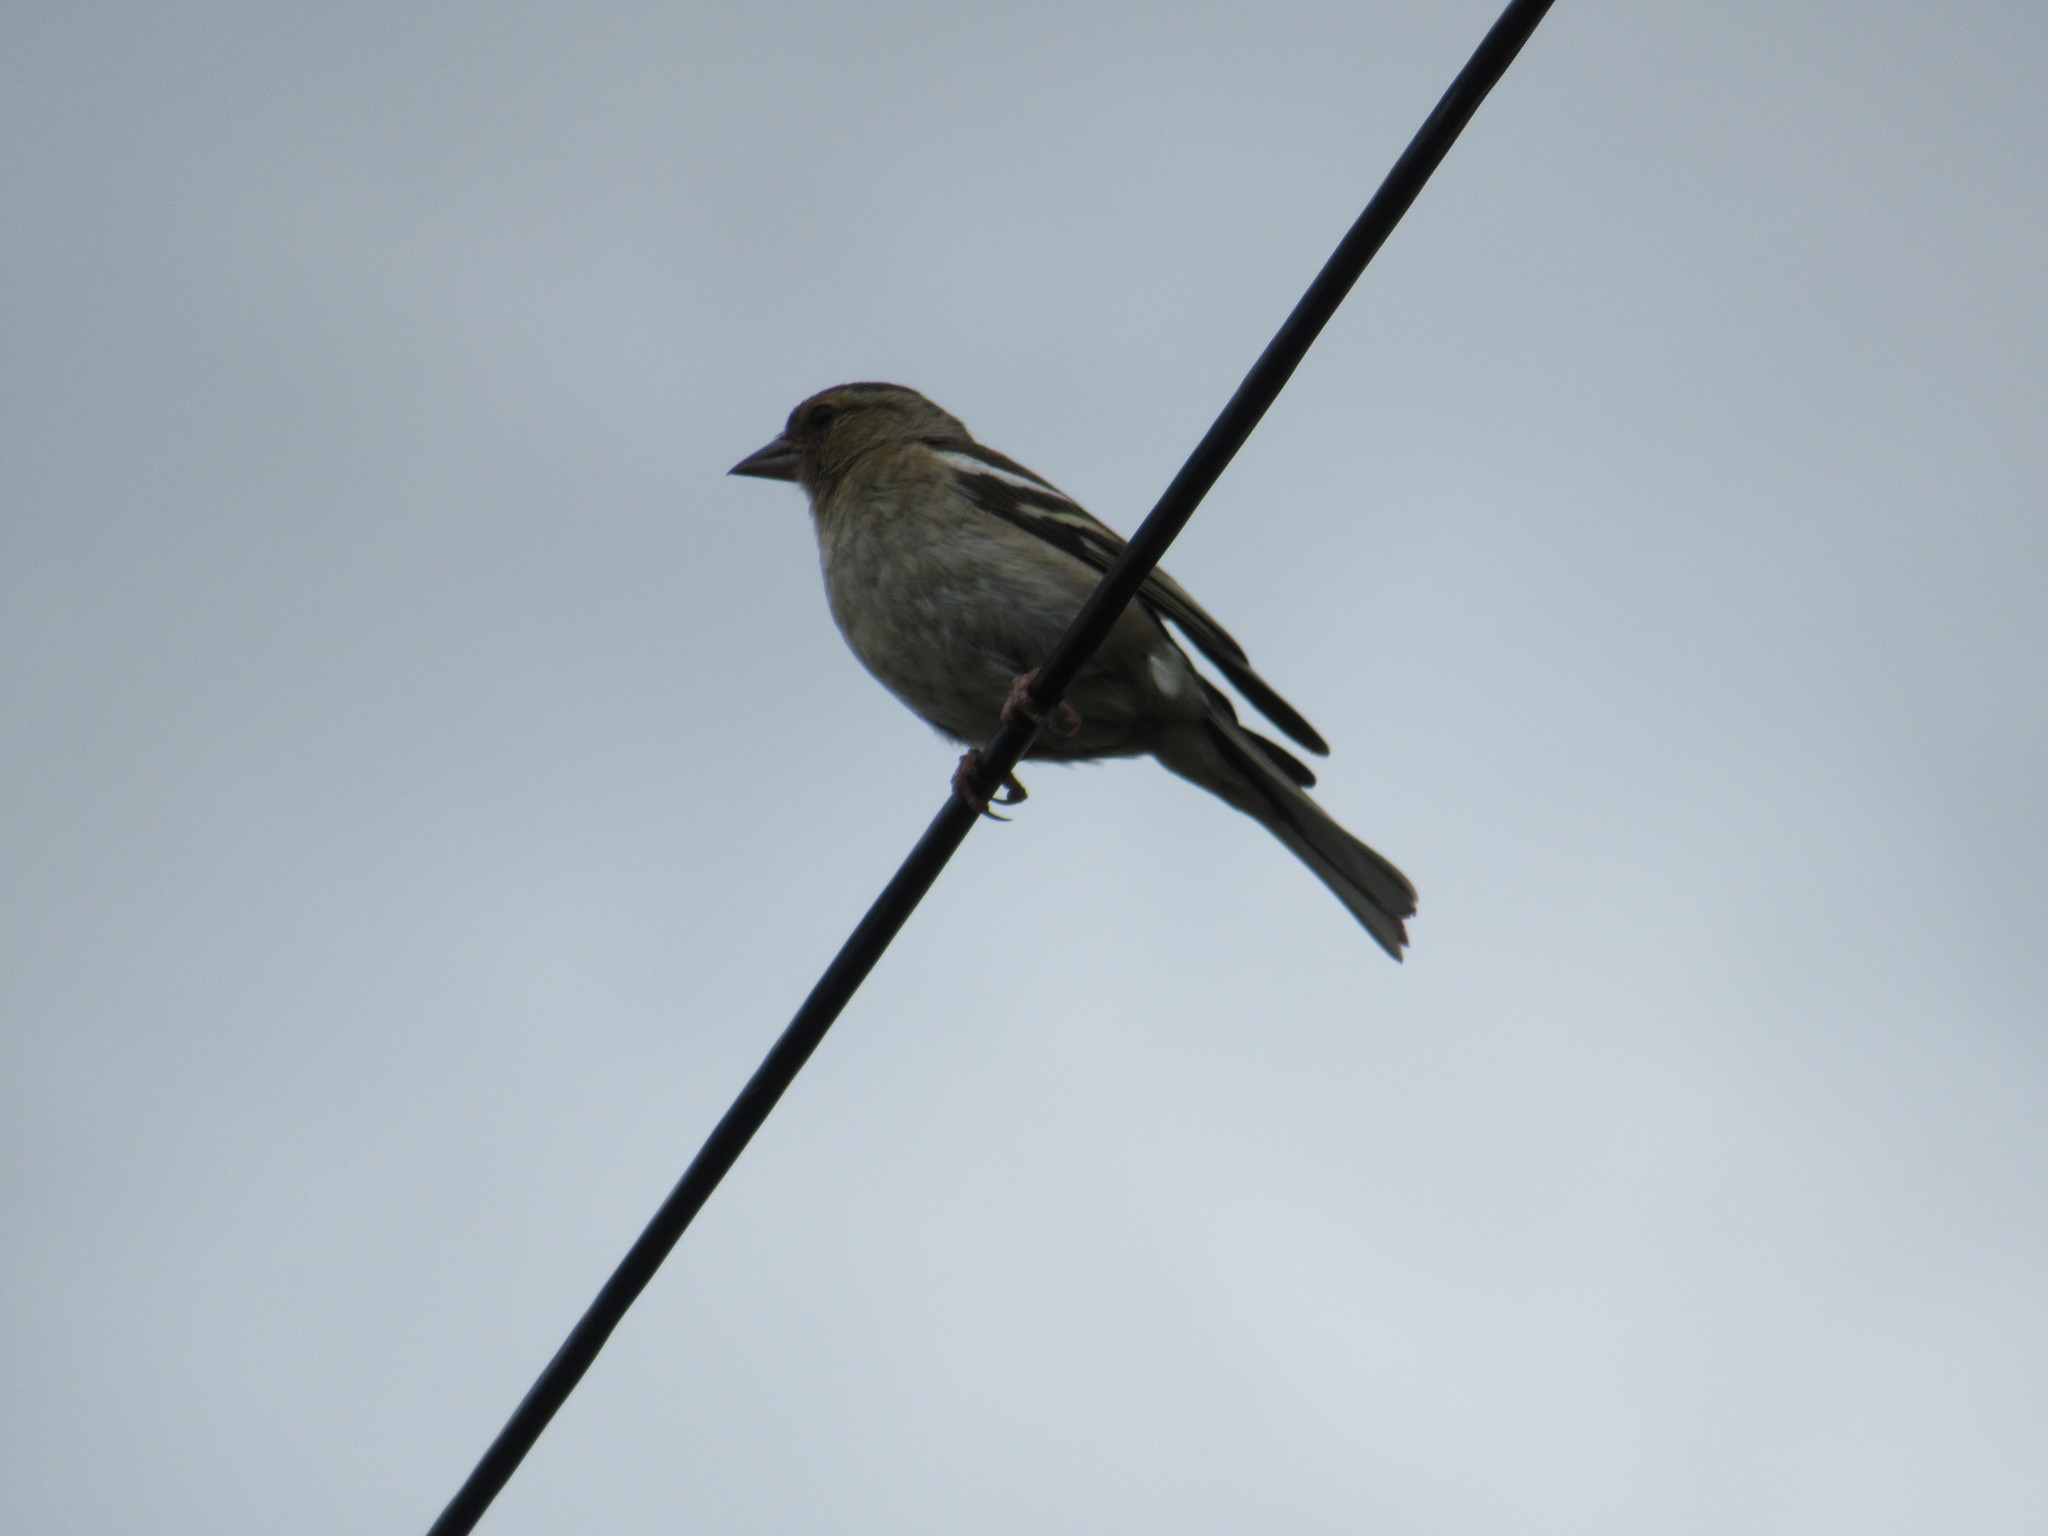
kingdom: Animalia
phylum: Chordata
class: Aves
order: Passeriformes
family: Fringillidae
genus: Fringilla
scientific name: Fringilla coelebs
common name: Common chaffinch
